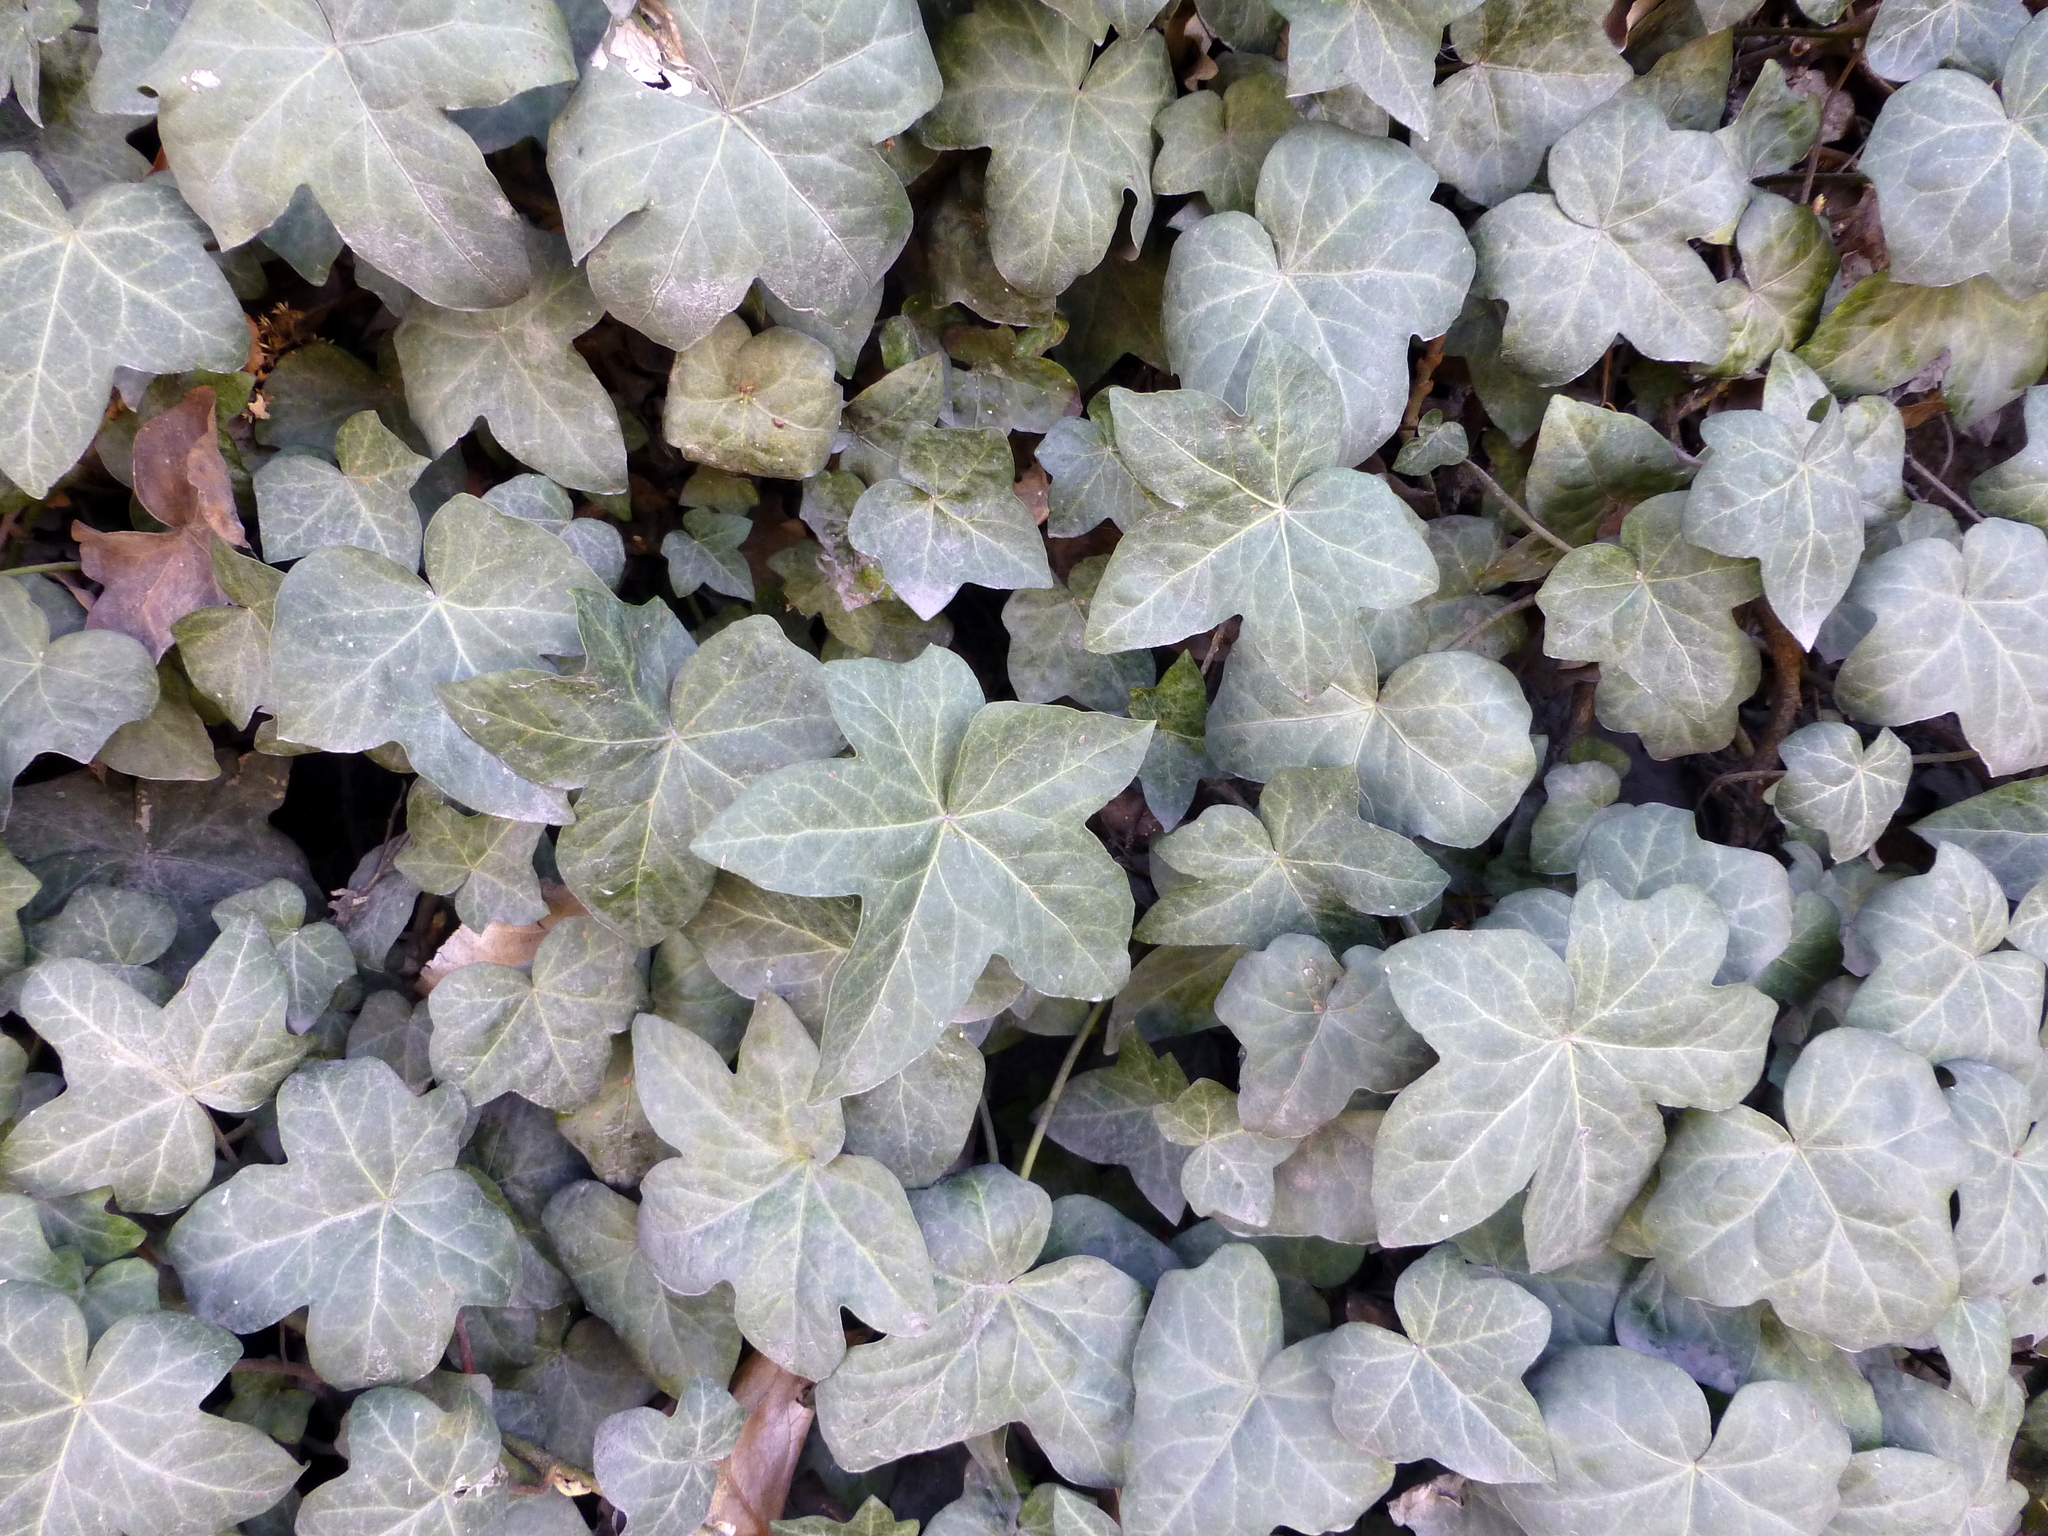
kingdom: Plantae
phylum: Tracheophyta
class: Magnoliopsida
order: Apiales
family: Araliaceae
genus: Hedera
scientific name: Hedera helix
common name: Ivy
